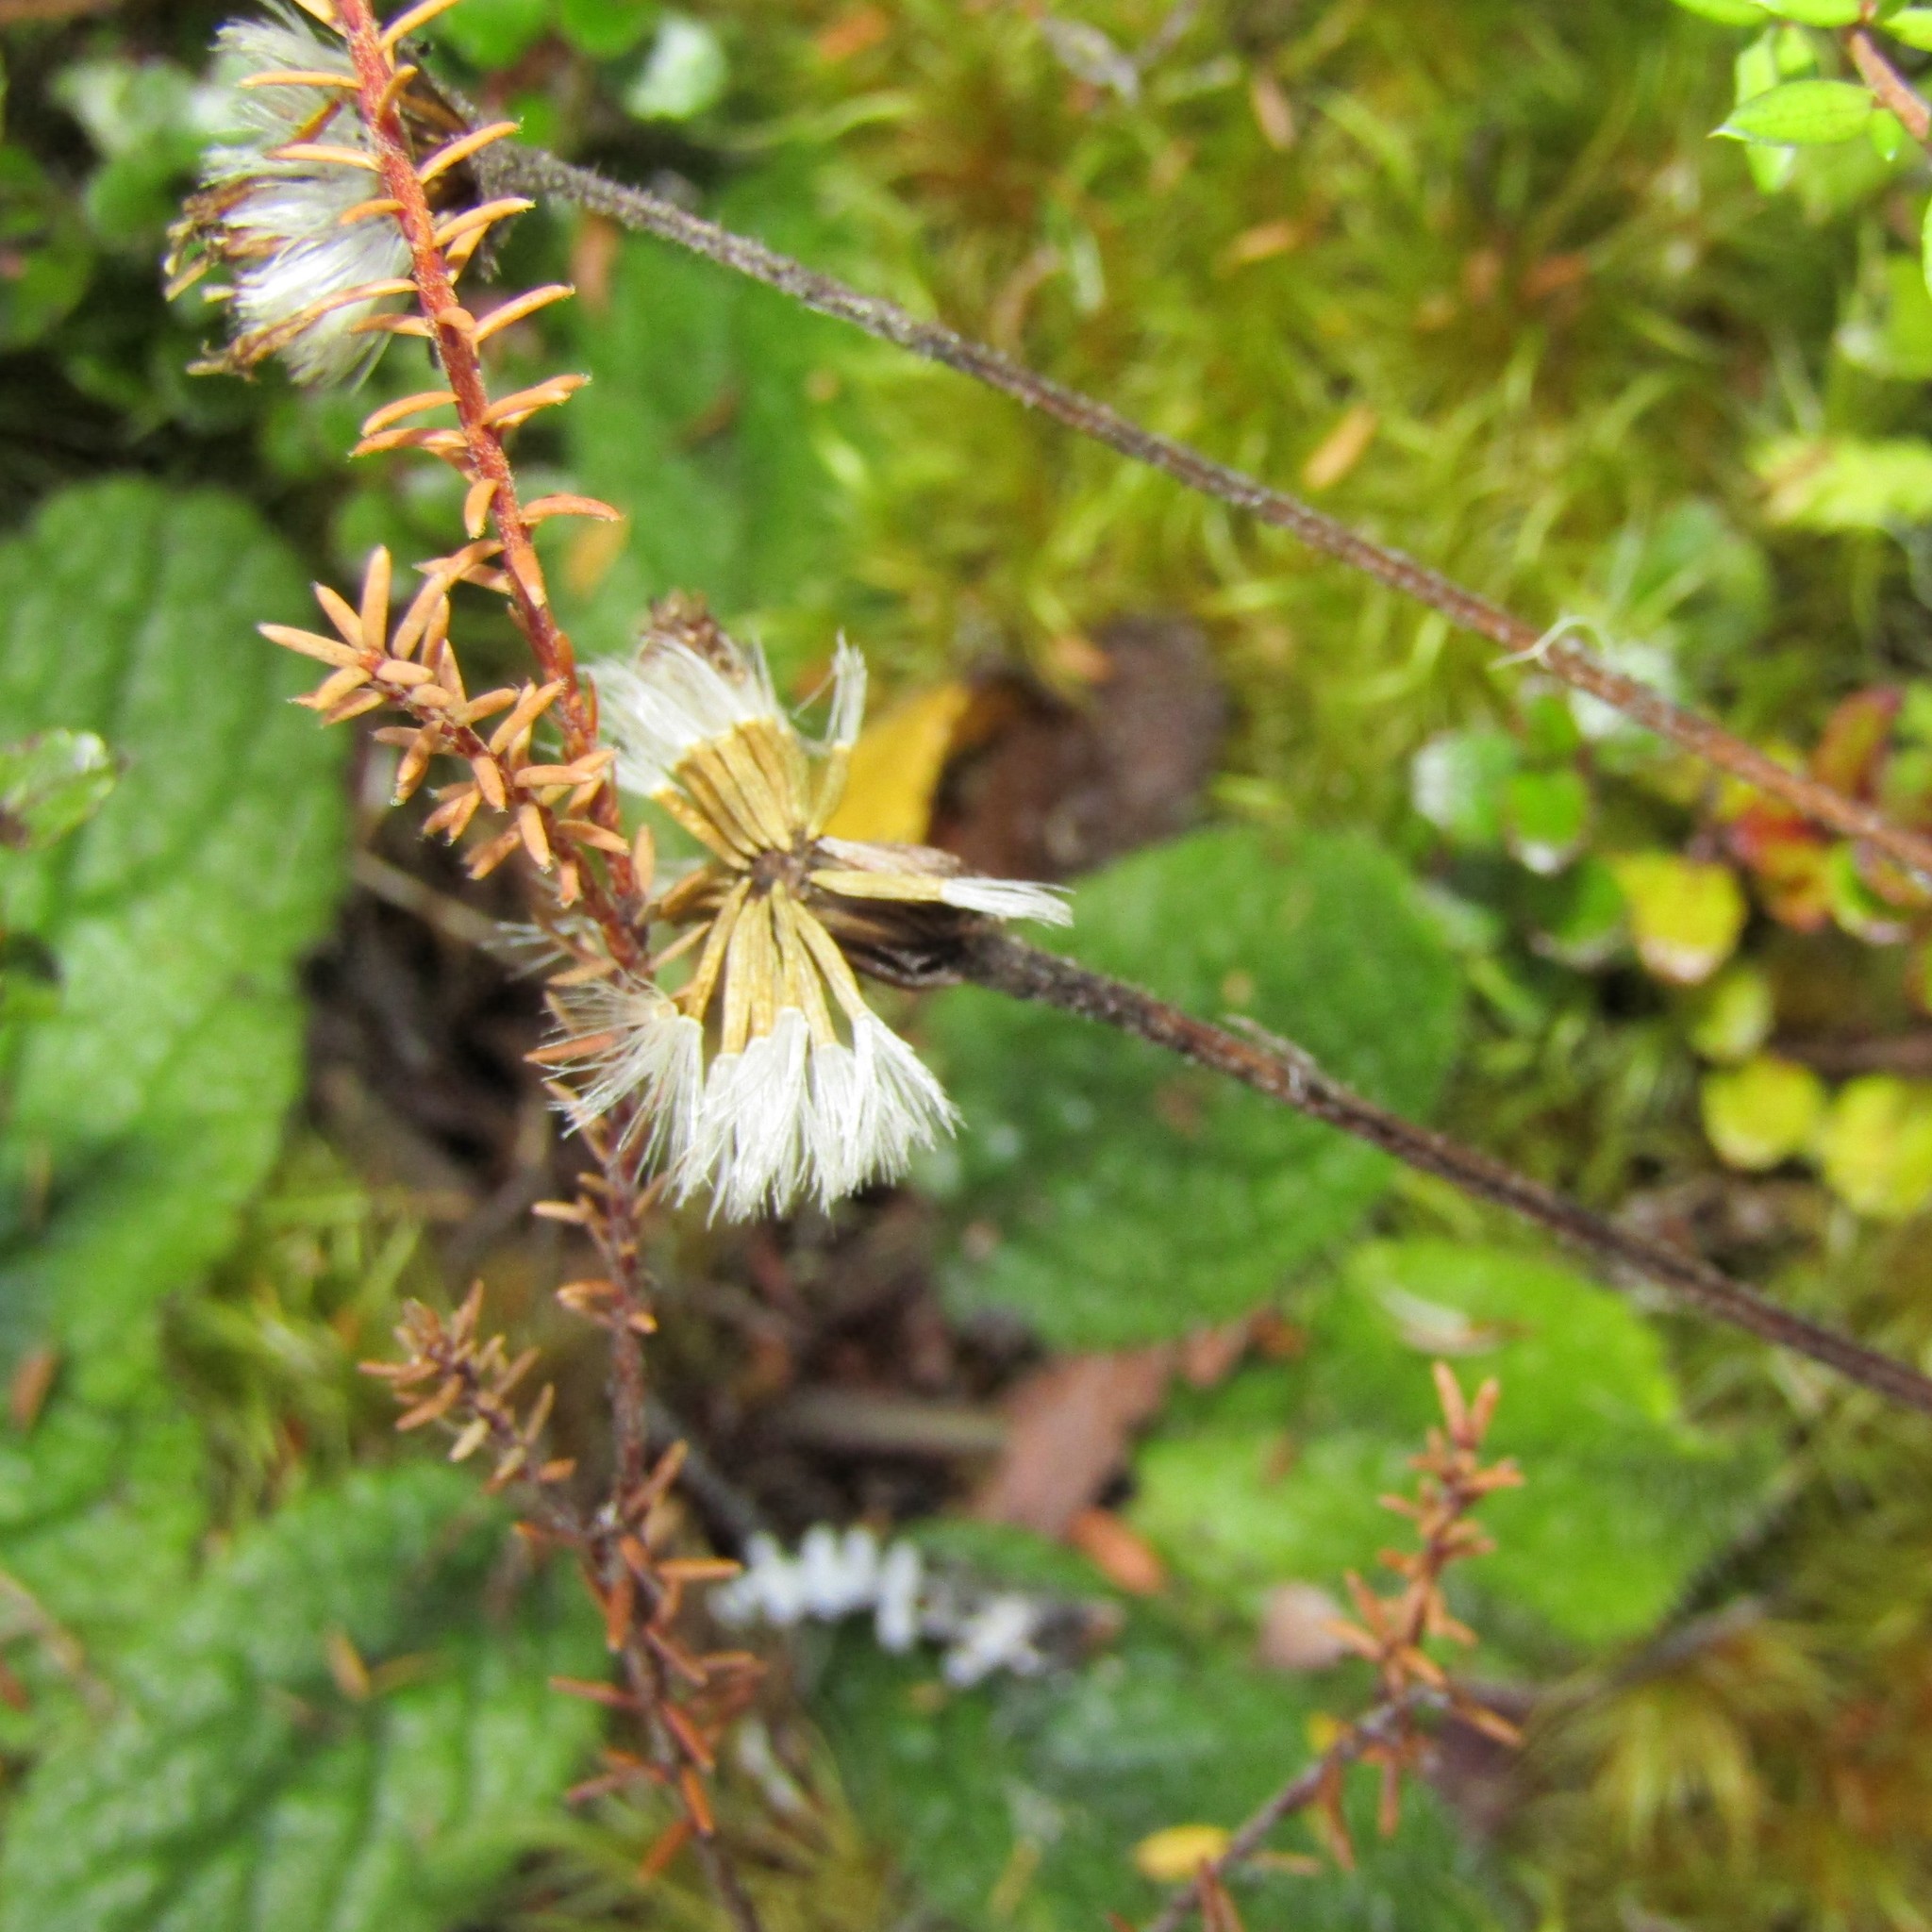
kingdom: Plantae
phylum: Tracheophyta
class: Magnoliopsida
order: Asterales
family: Asteraceae
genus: Brachyglottis
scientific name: Brachyglottis bellidioides
